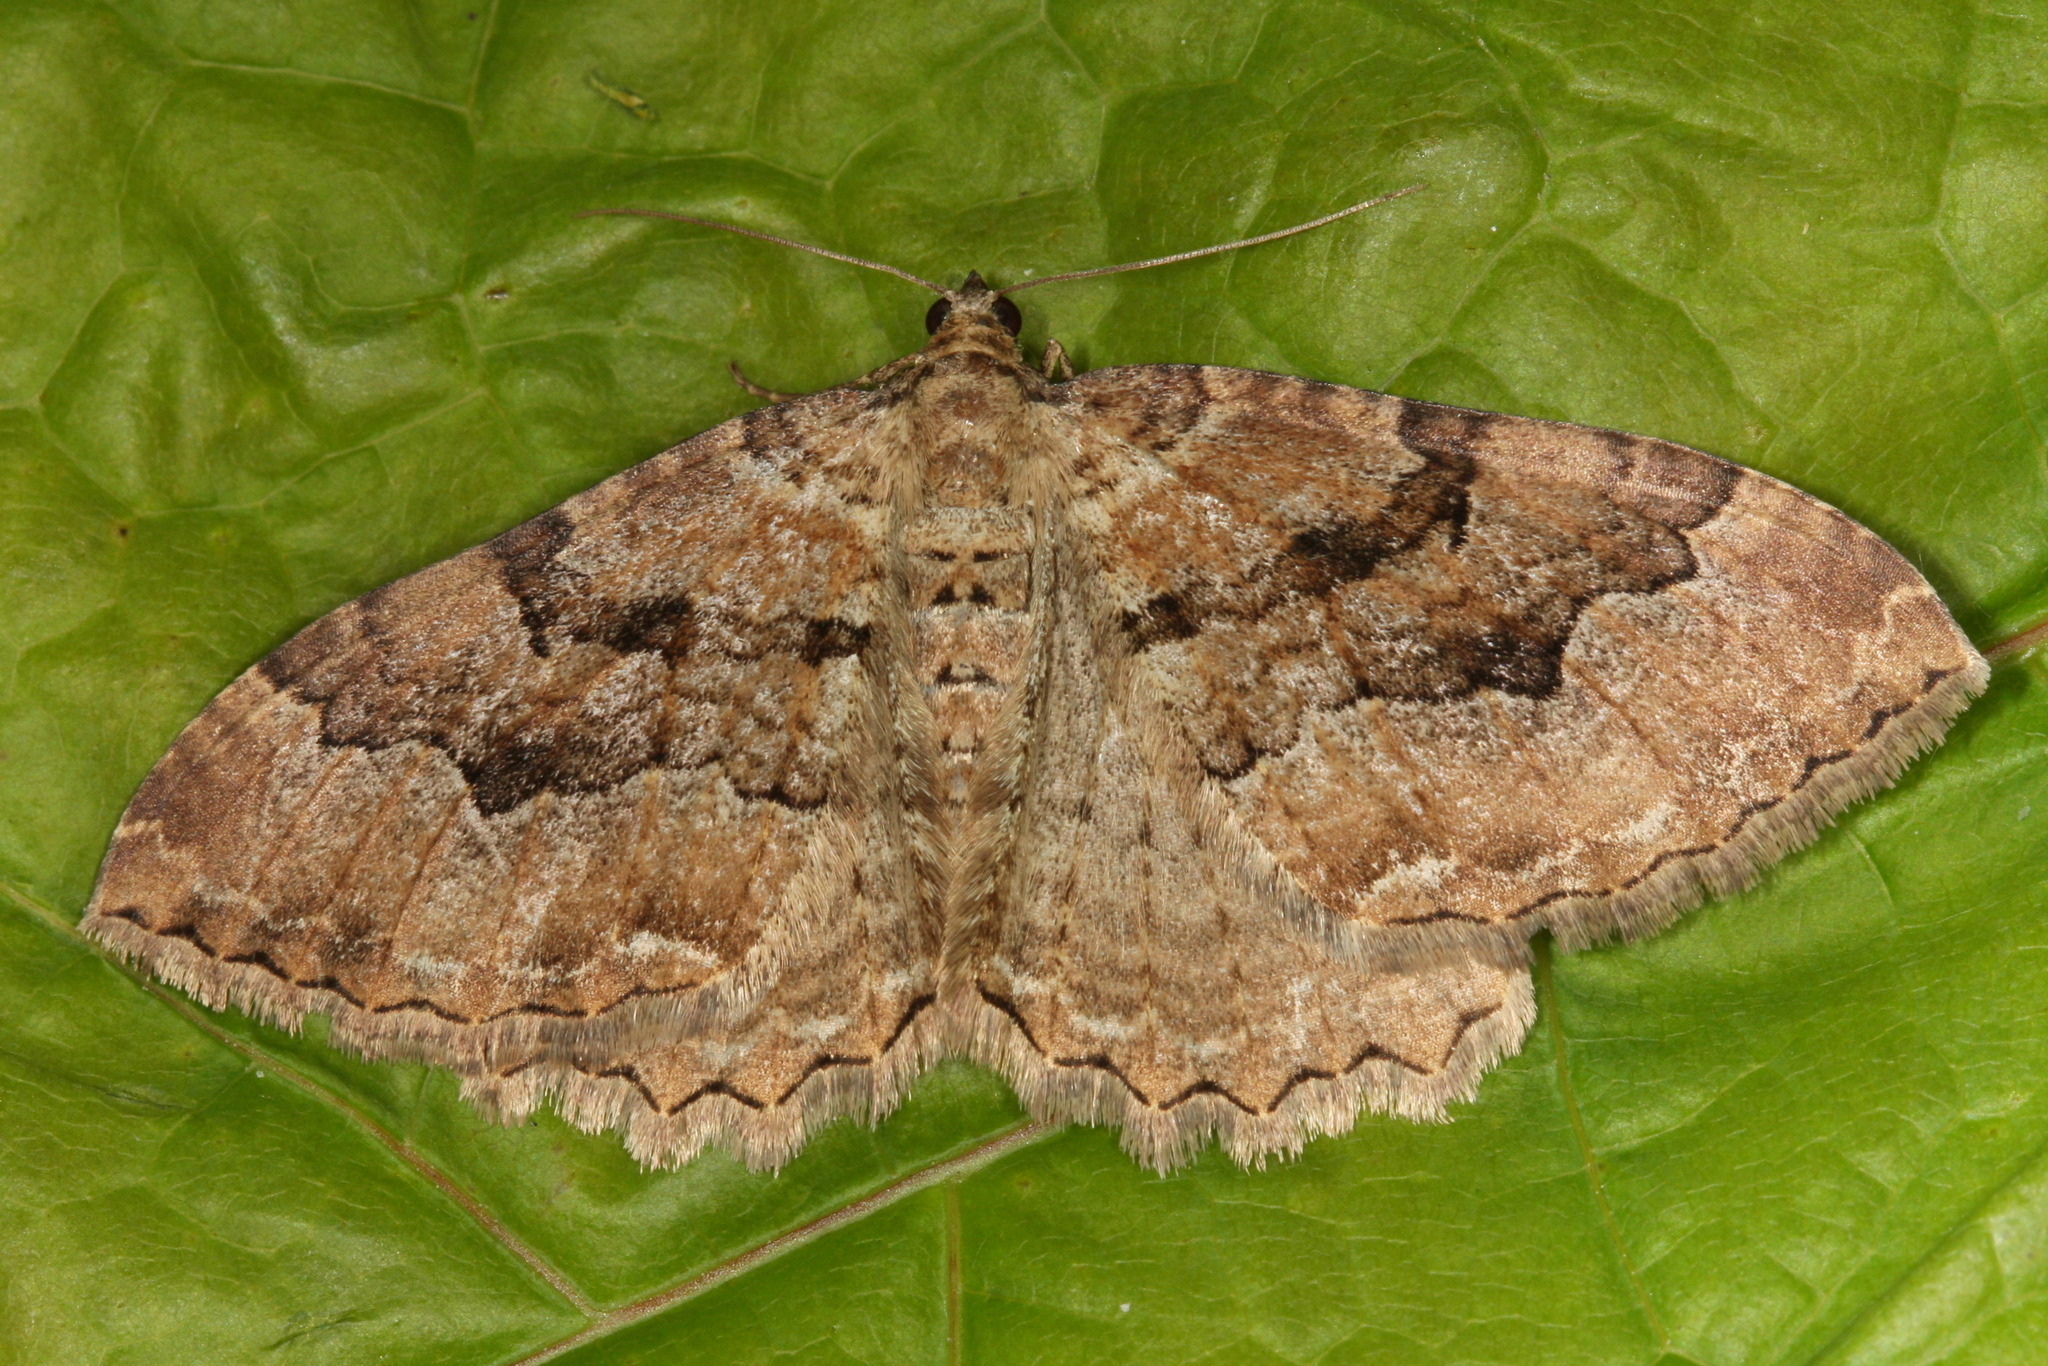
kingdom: Animalia
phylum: Arthropoda
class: Insecta
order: Lepidoptera
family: Geometridae
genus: Rheumaptera
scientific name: Rheumaptera Hydria cervinalis
